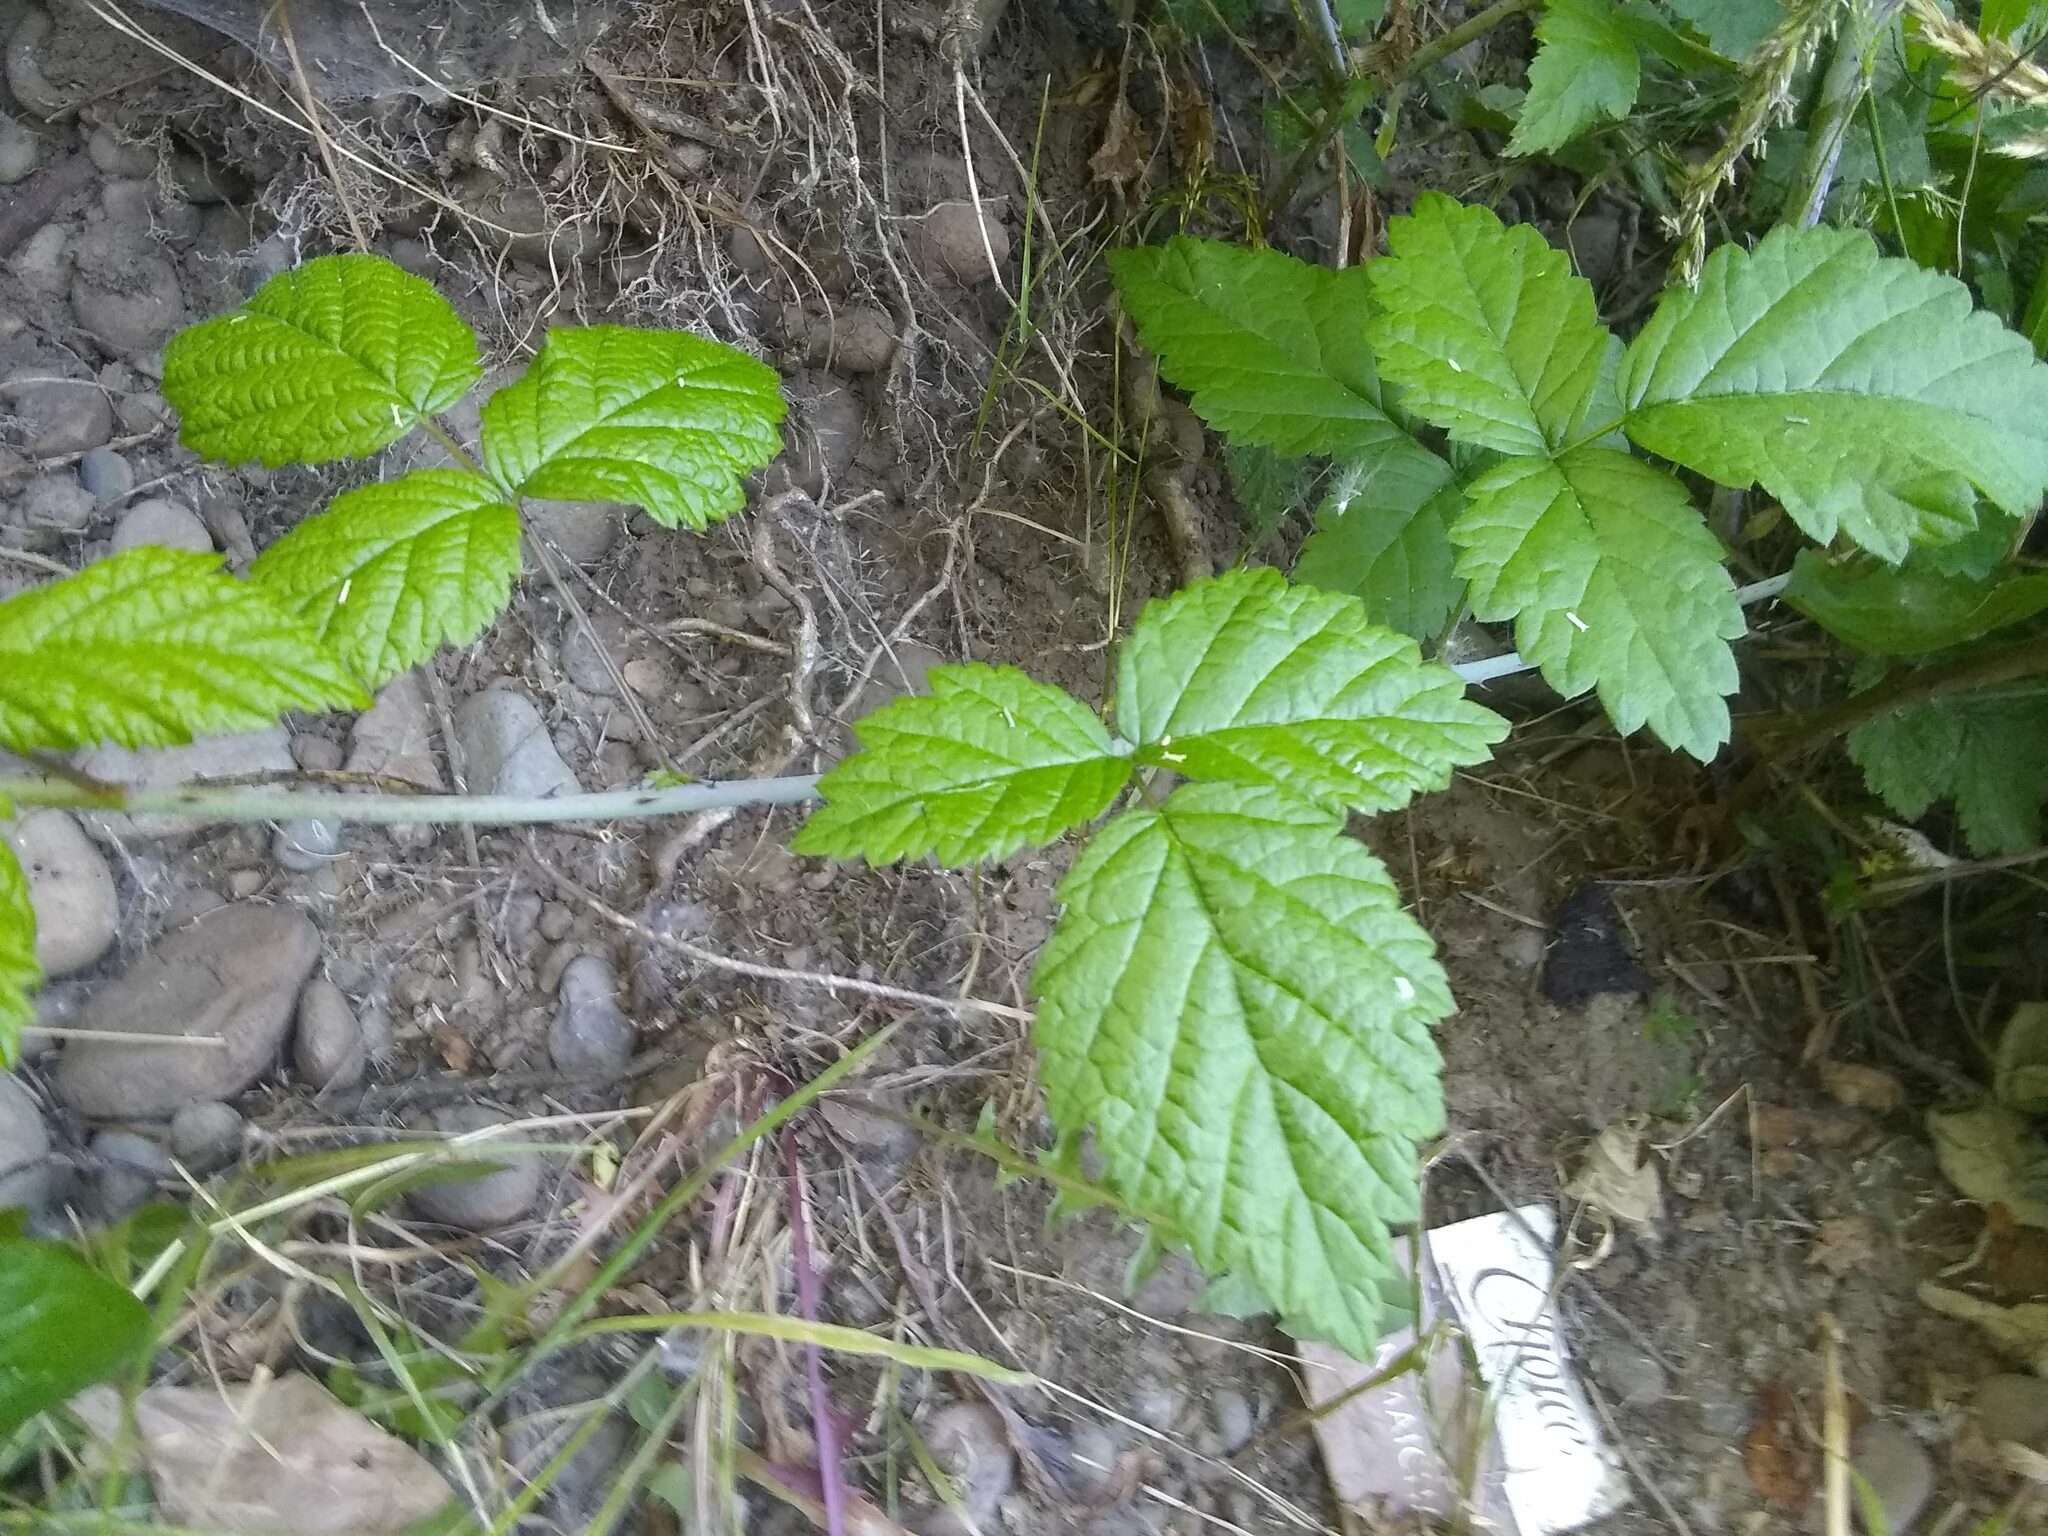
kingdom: Plantae
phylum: Tracheophyta
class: Magnoliopsida
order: Rosales
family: Rosaceae
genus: Rubus
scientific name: Rubus ursinus
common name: Pacific blackberry
